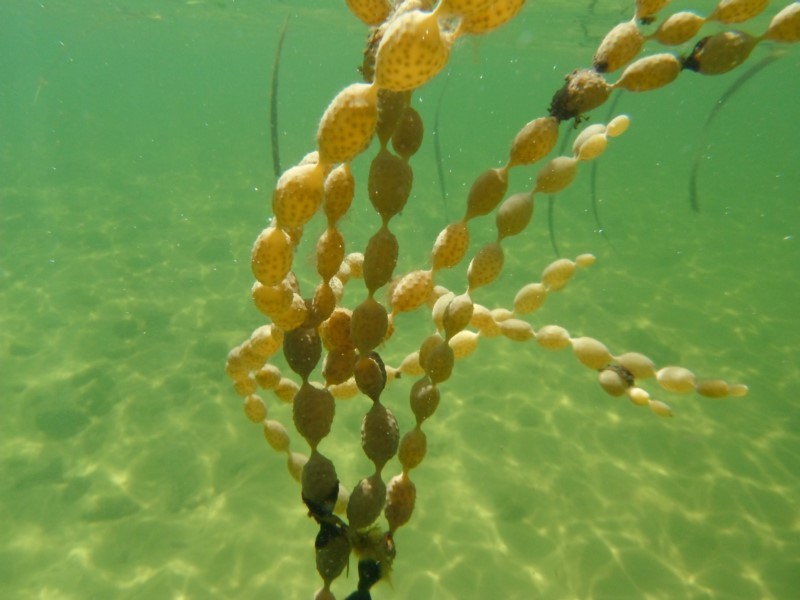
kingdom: Chromista
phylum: Ochrophyta
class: Phaeophyceae
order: Fucales
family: Hormosiraceae
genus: Hormosira
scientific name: Hormosira banksii
